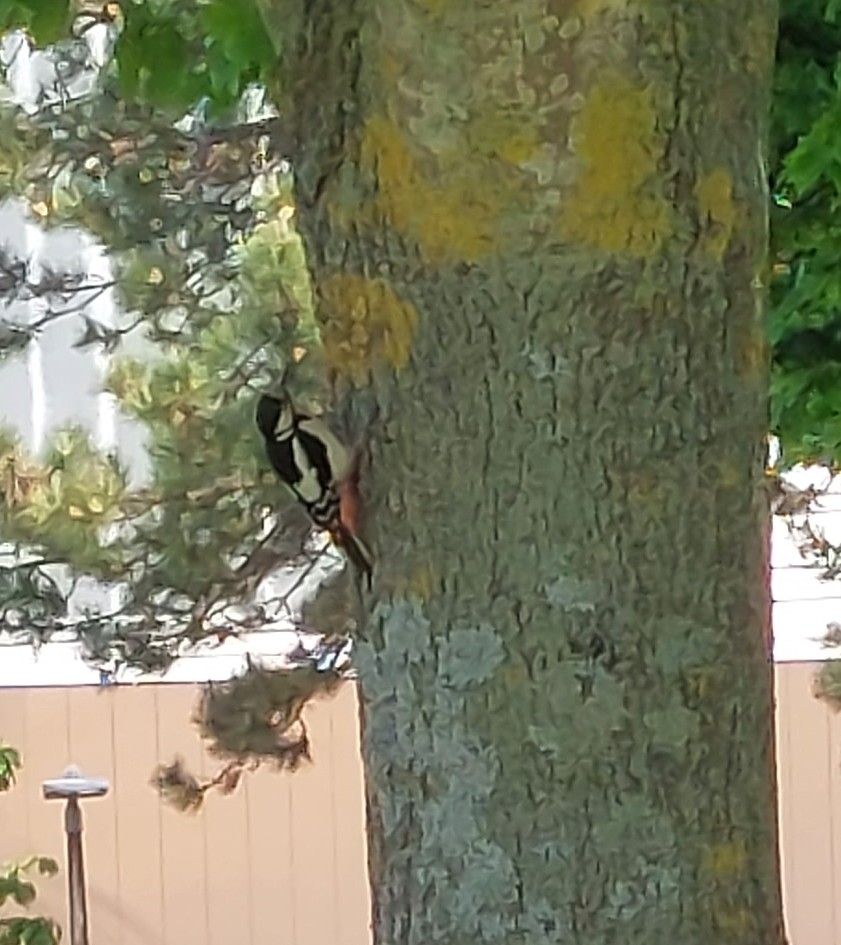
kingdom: Animalia
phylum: Chordata
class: Aves
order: Piciformes
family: Picidae
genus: Dendrocopos
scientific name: Dendrocopos major
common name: Great spotted woodpecker
